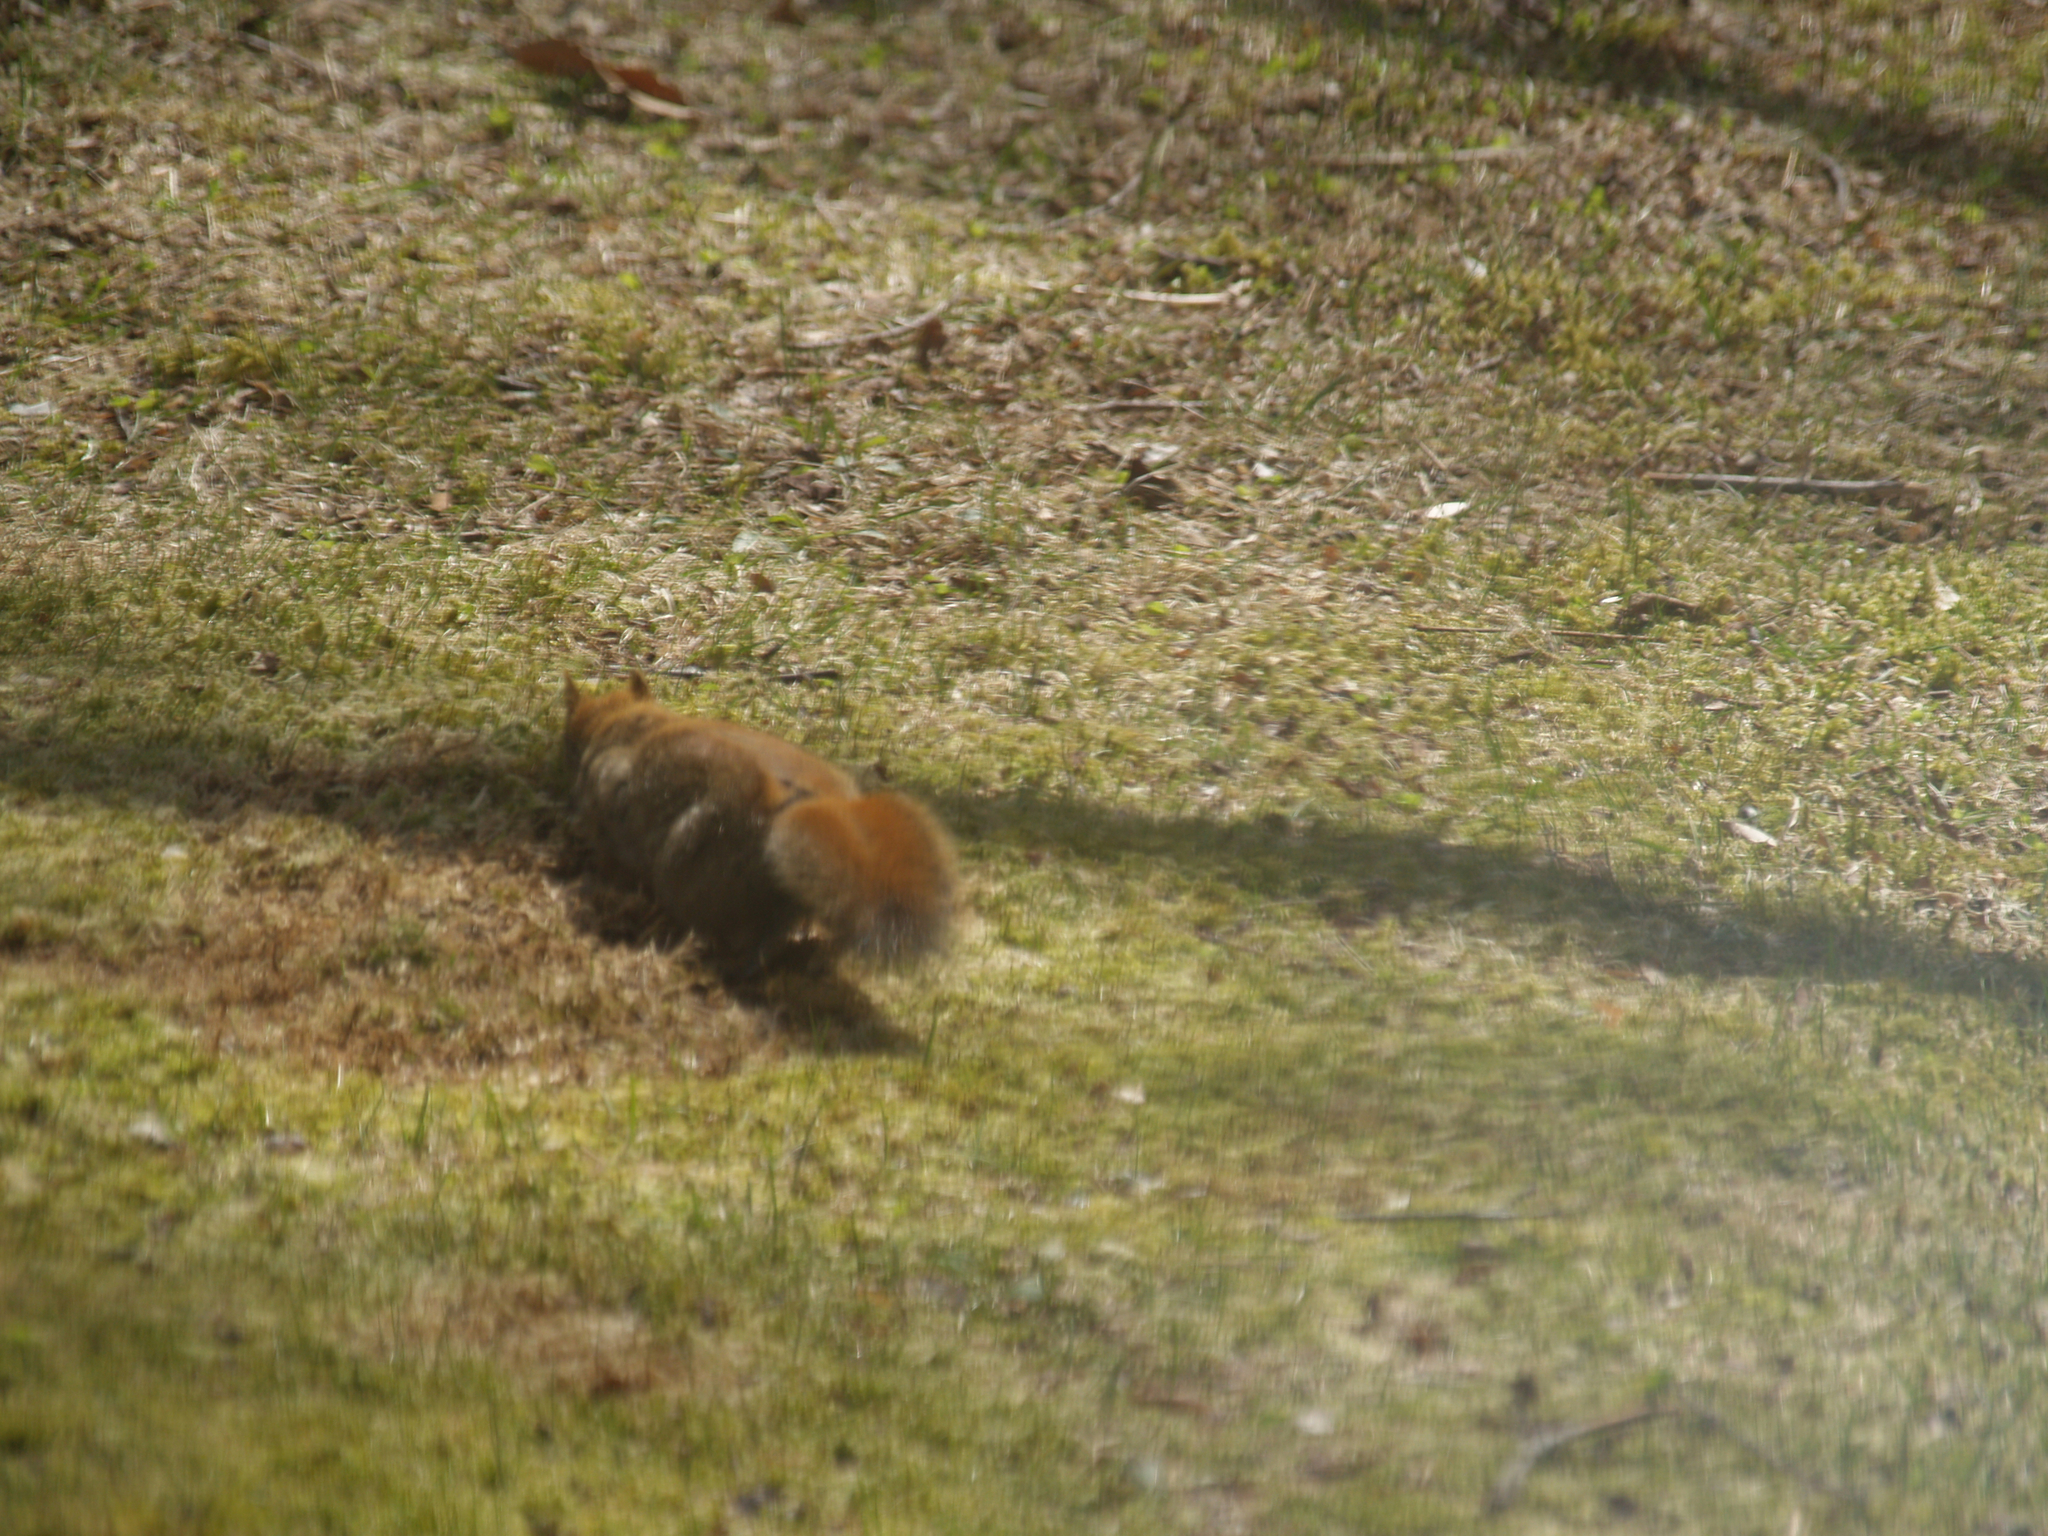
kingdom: Animalia
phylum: Chordata
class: Mammalia
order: Rodentia
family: Sciuridae
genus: Tamiasciurus
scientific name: Tamiasciurus hudsonicus
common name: Red squirrel
